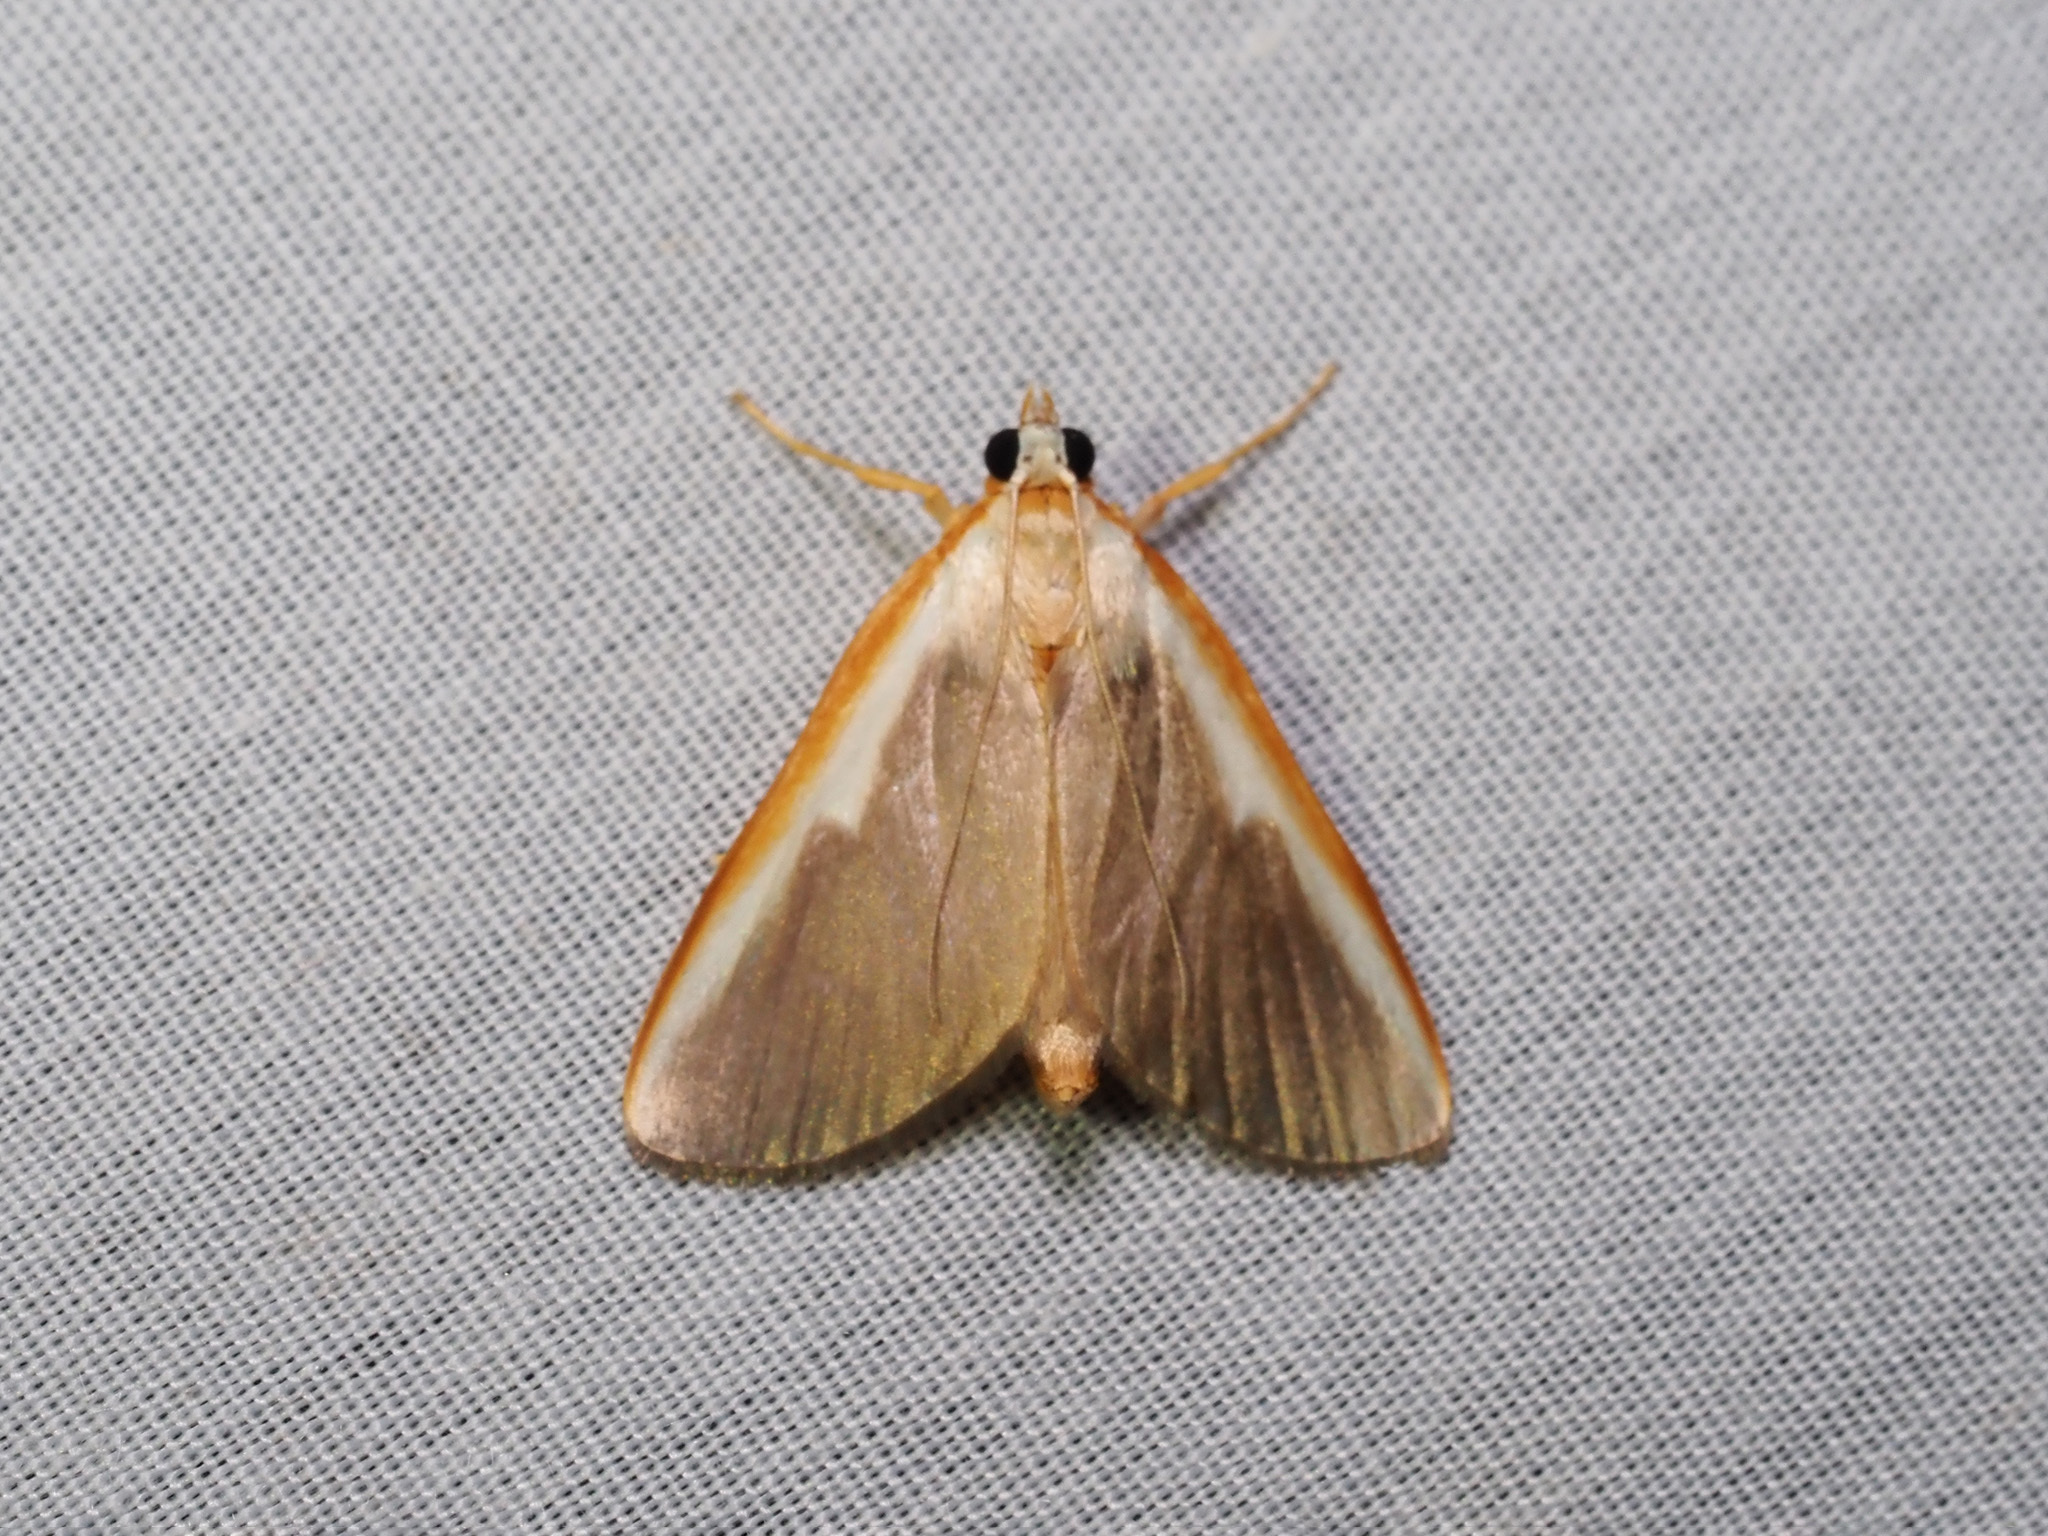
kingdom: Animalia
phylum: Arthropoda
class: Insecta
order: Lepidoptera
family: Crambidae
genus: Pylartes
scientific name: Pylartes subcostalis
